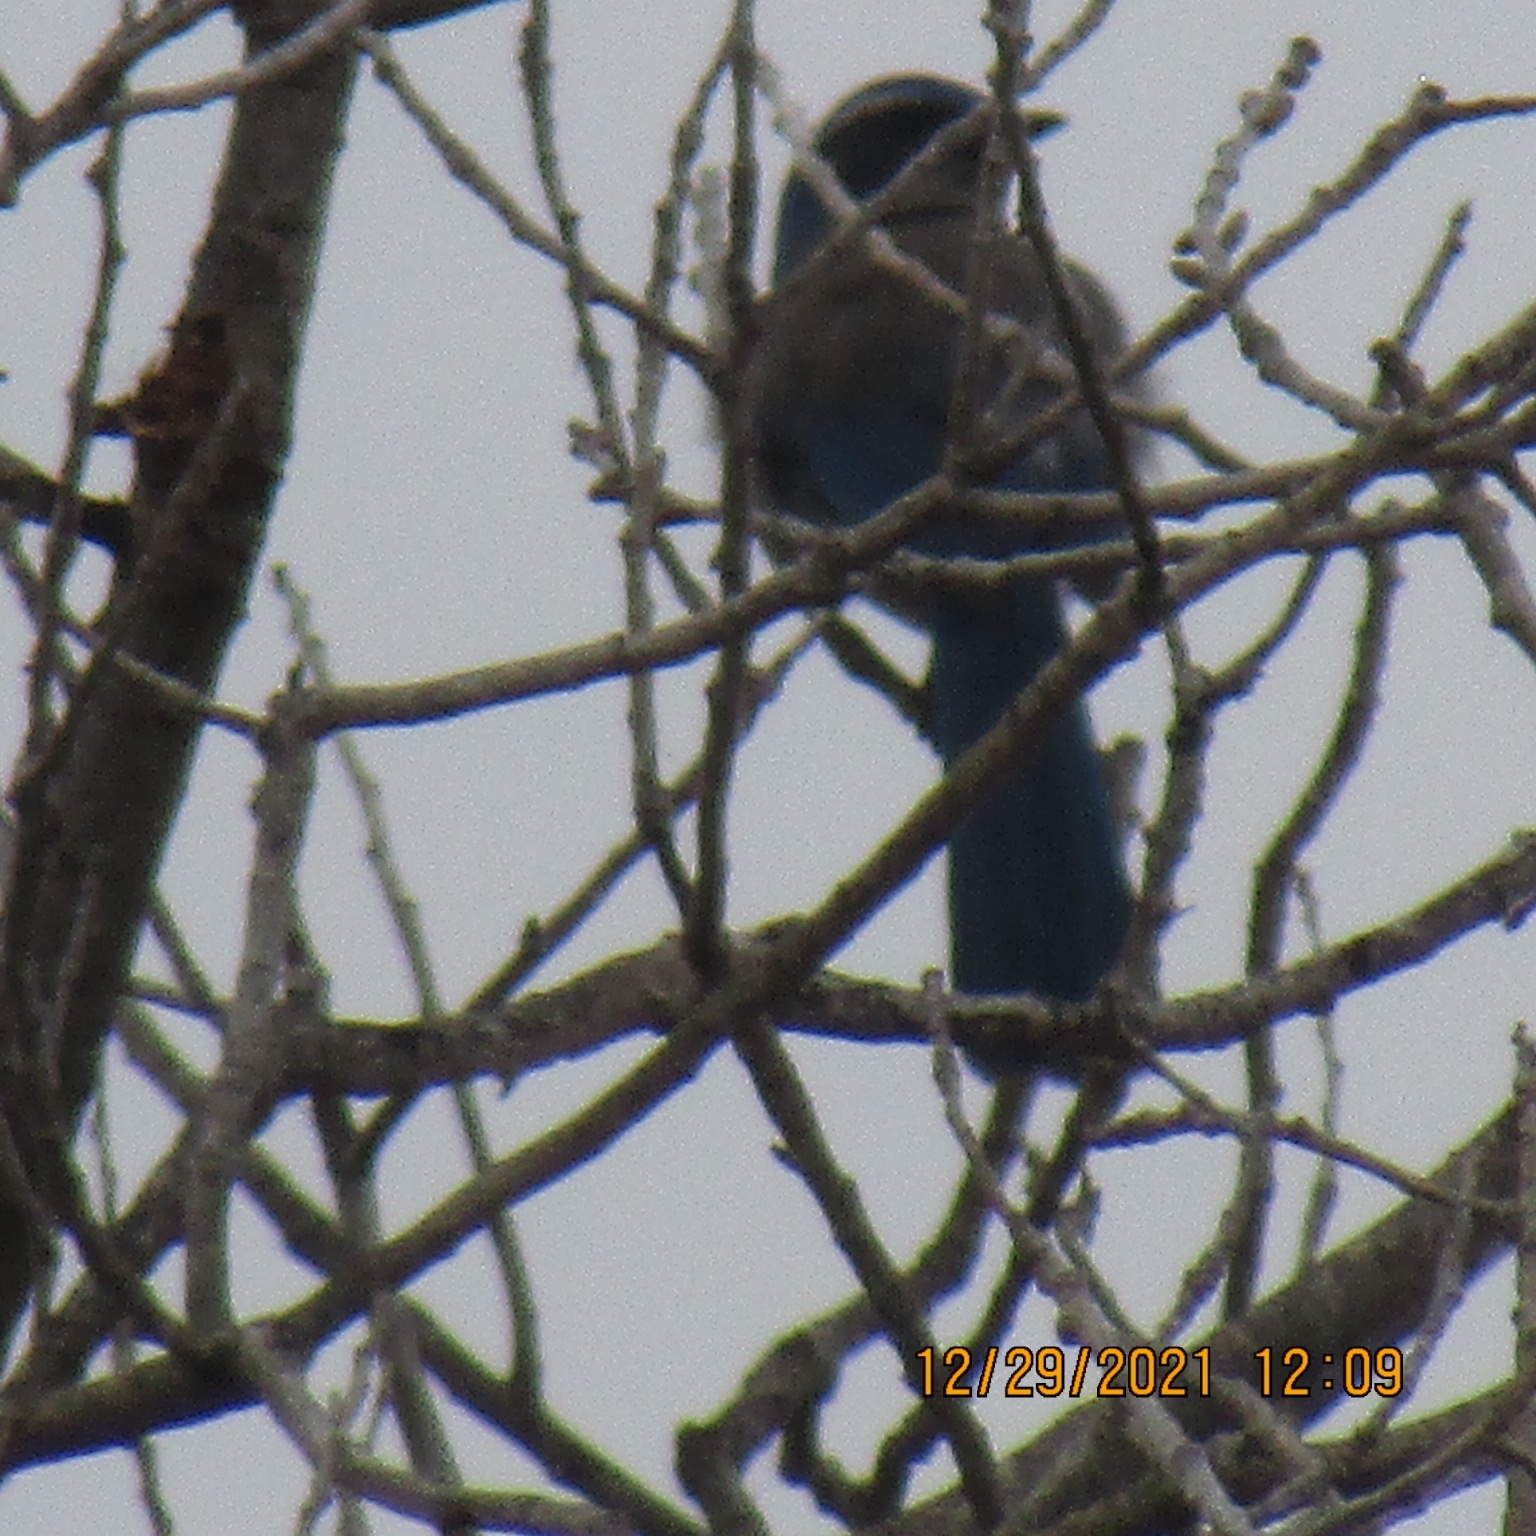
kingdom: Animalia
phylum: Chordata
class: Aves
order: Passeriformes
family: Corvidae
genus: Aphelocoma
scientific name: Aphelocoma californica
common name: California scrub-jay
